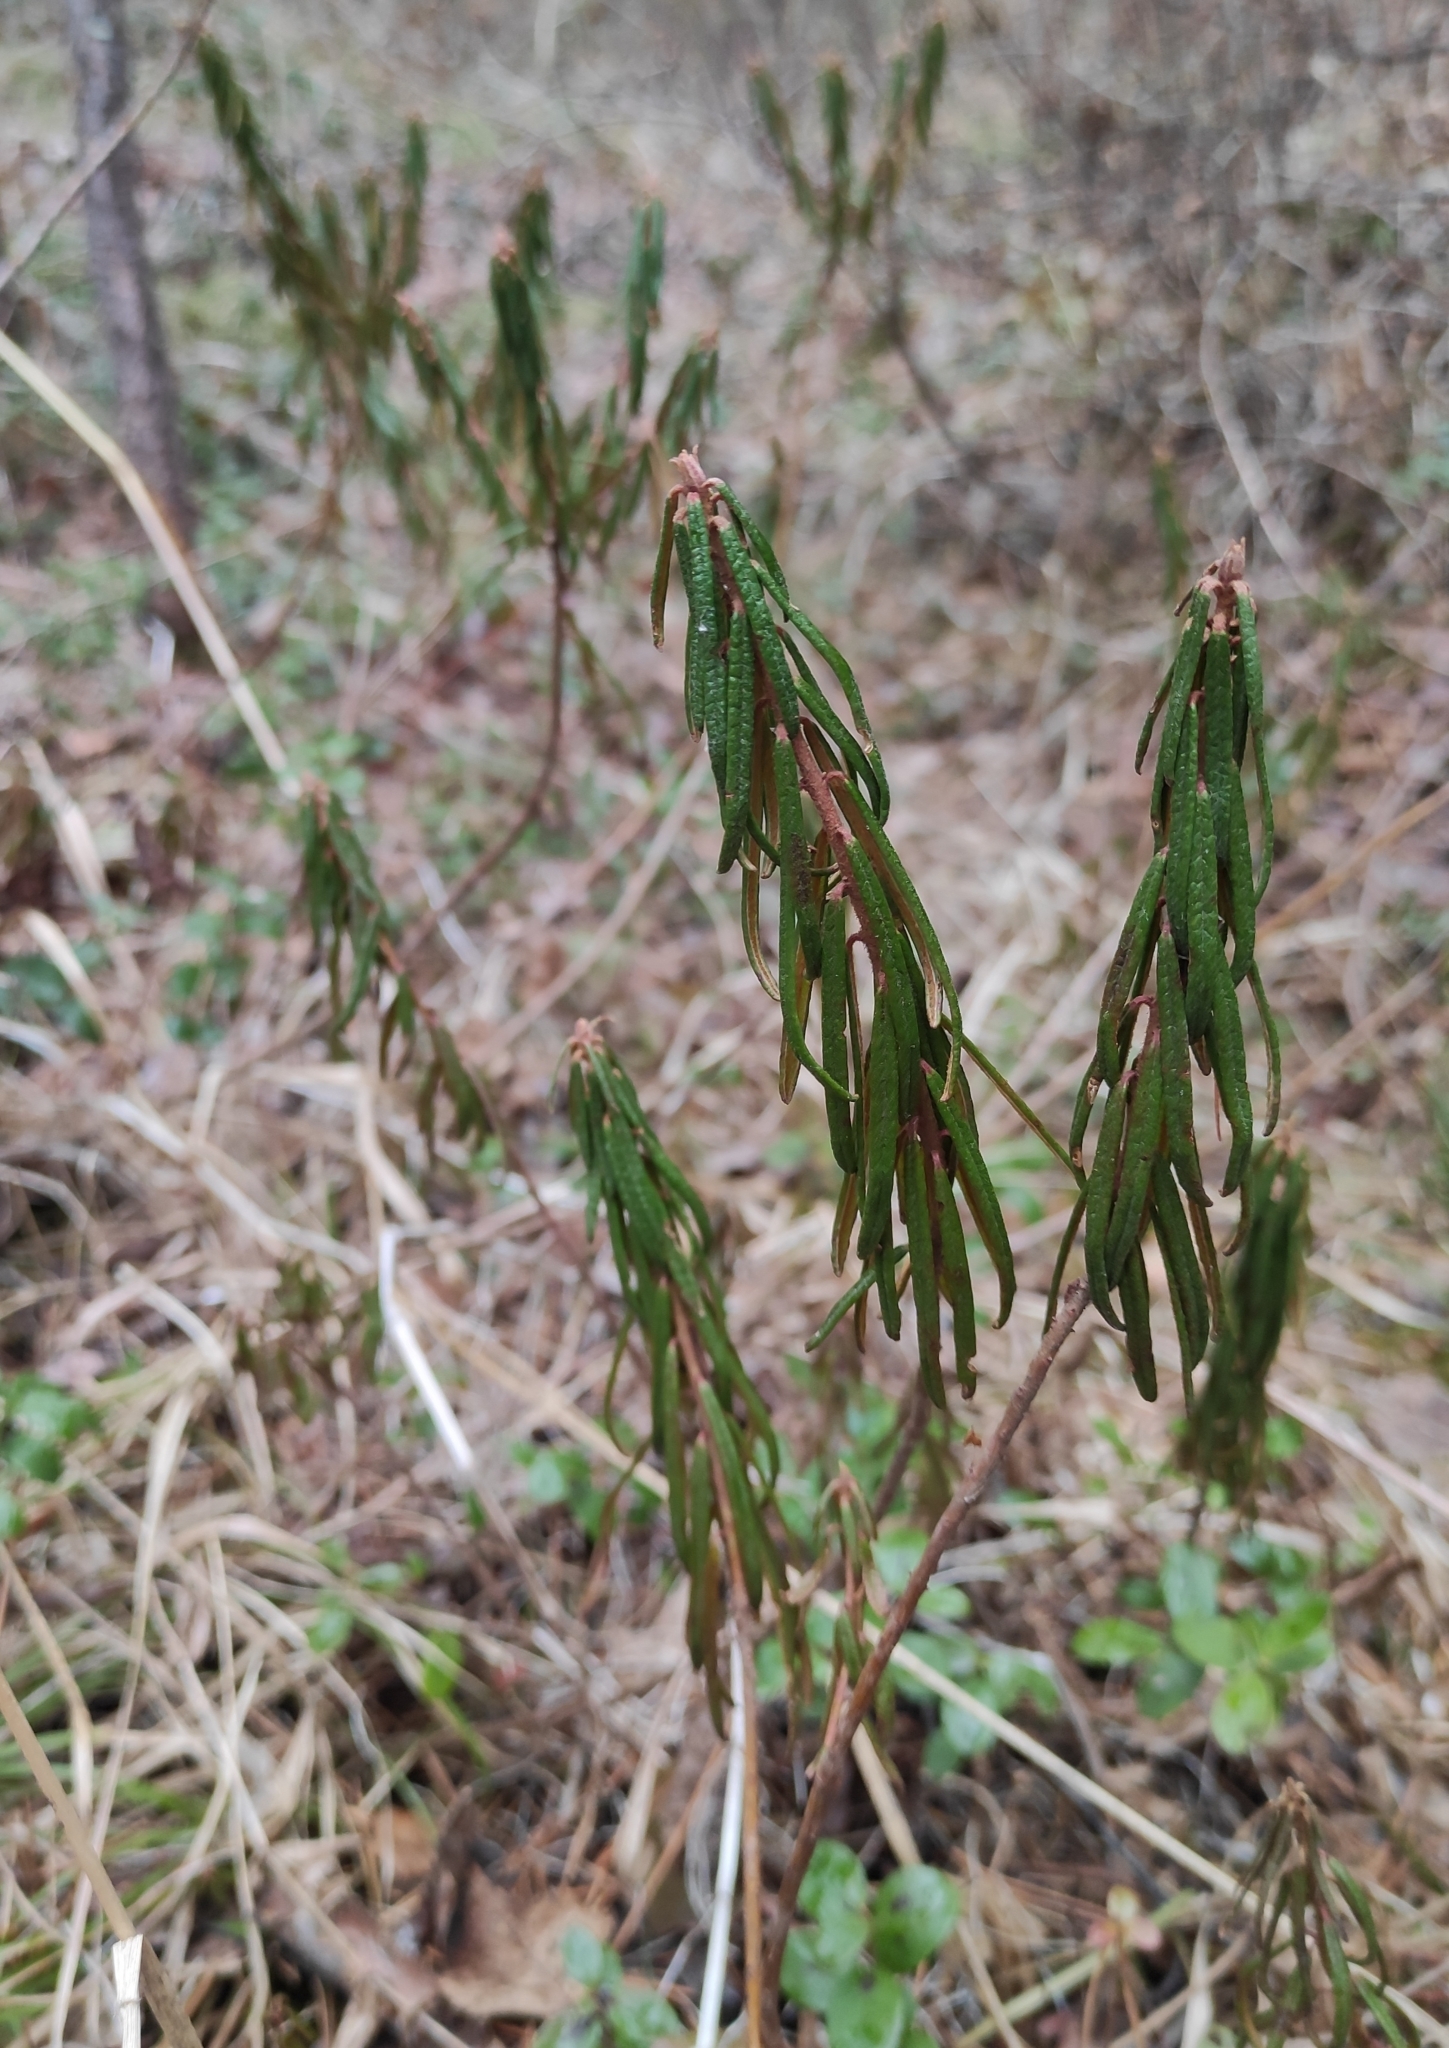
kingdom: Plantae
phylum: Tracheophyta
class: Magnoliopsida
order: Ericales
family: Ericaceae
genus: Rhododendron
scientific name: Rhododendron tomentosum
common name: Marsh labrador tea
